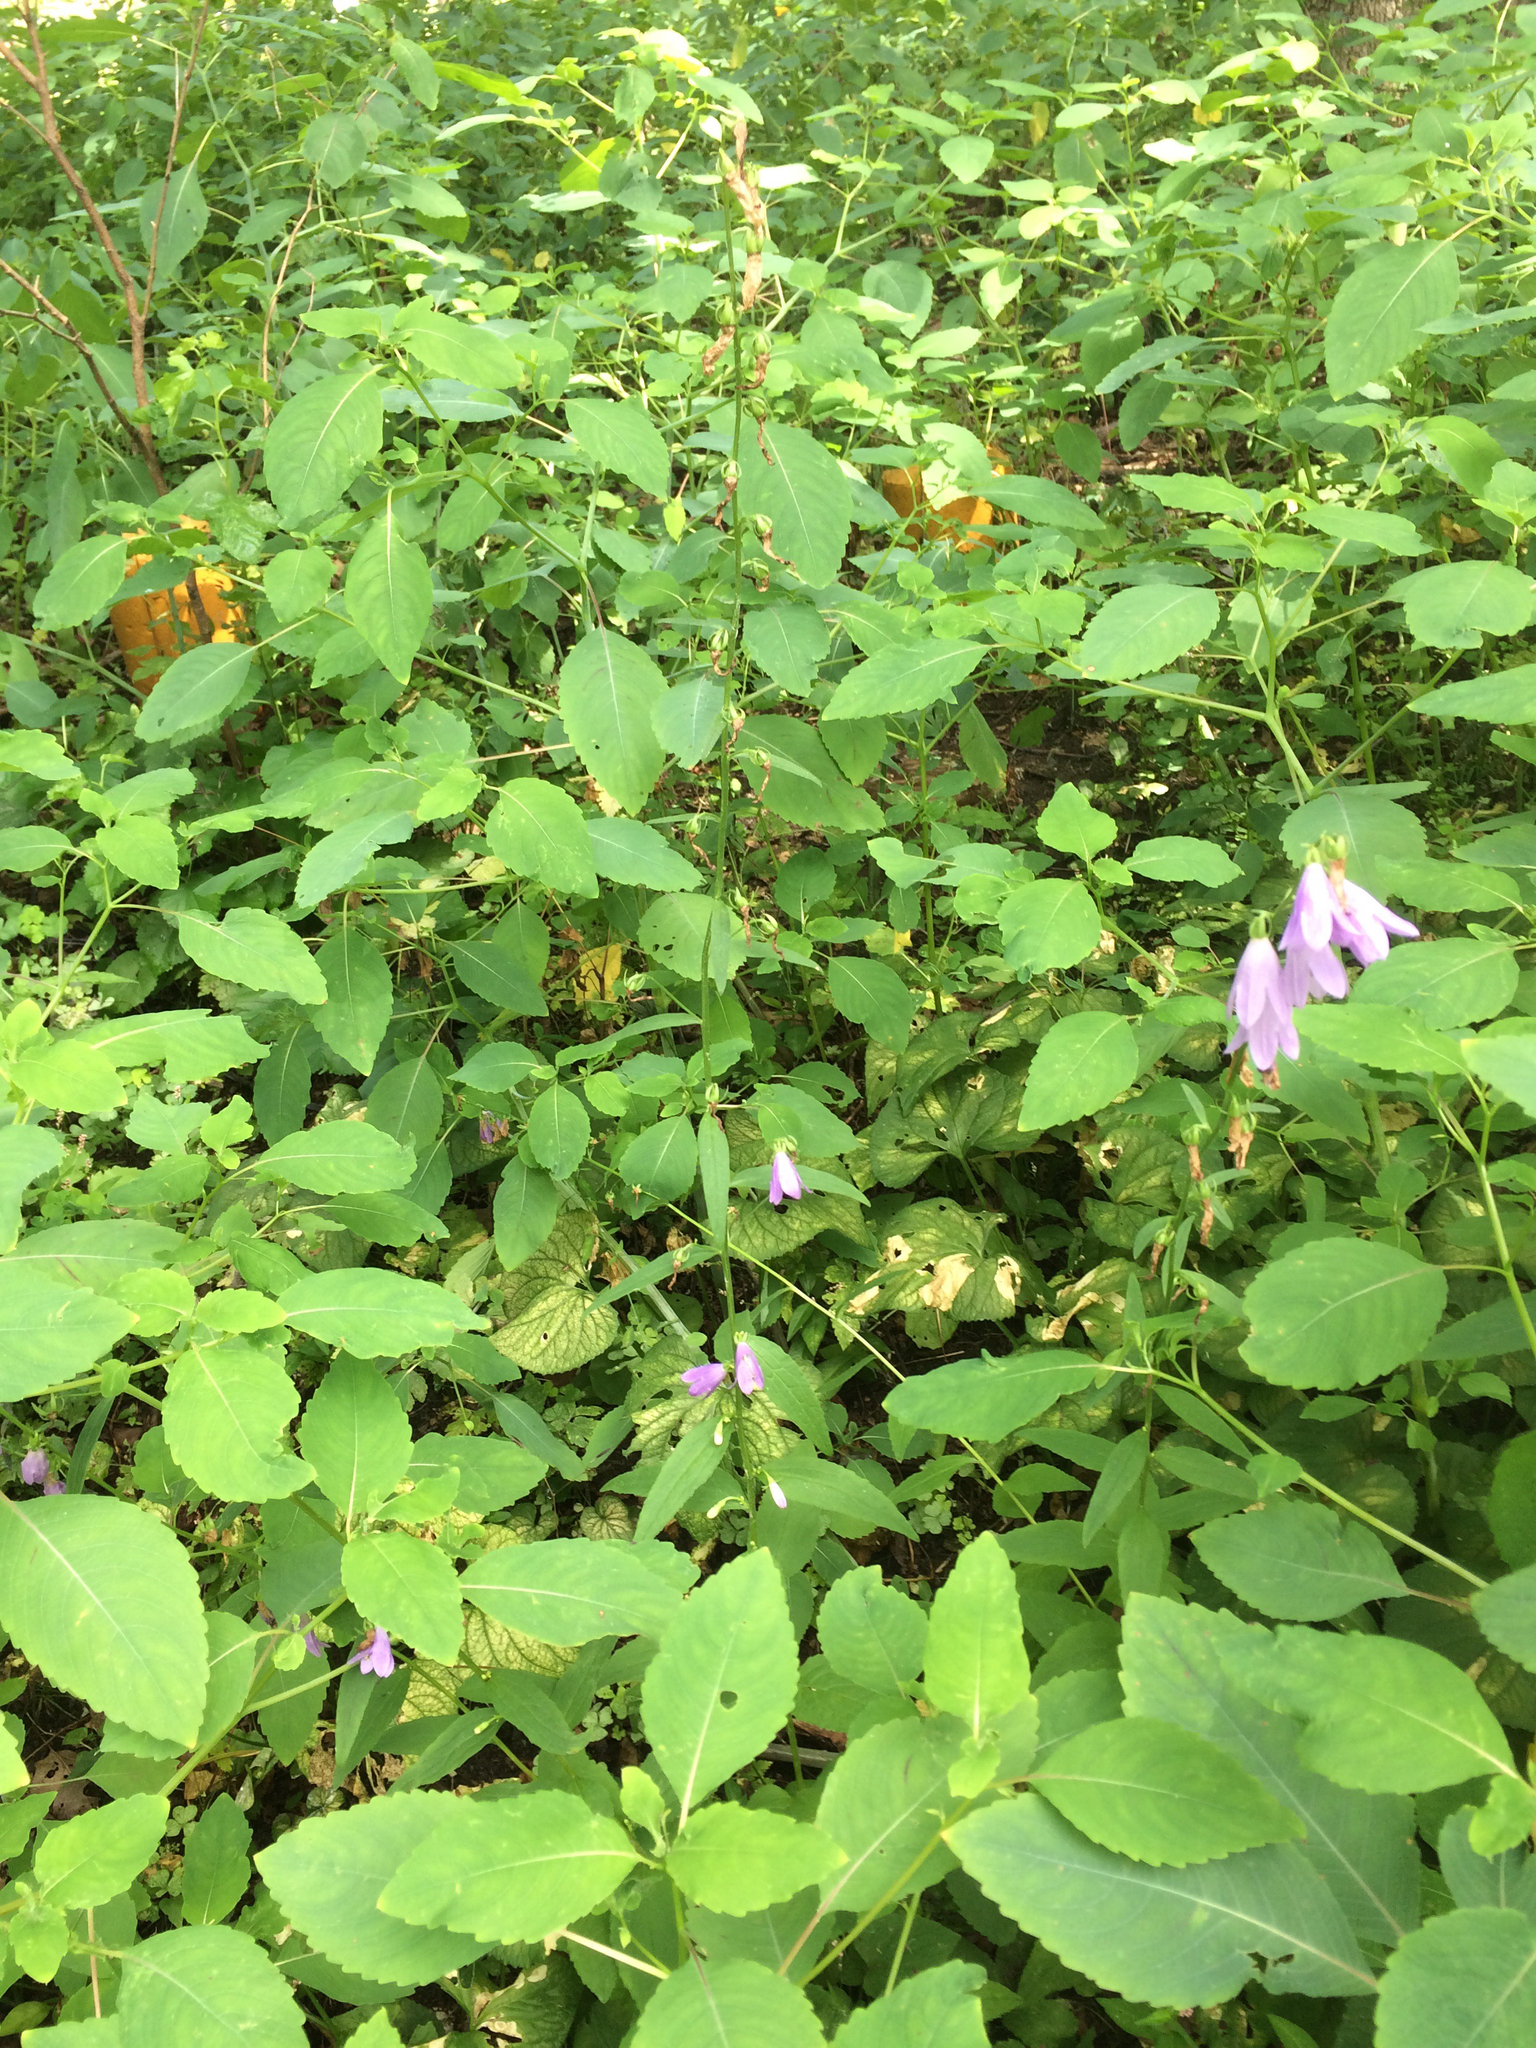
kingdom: Plantae
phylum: Tracheophyta
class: Magnoliopsida
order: Asterales
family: Campanulaceae
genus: Campanula
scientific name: Campanula rapunculoides
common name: Creeping bellflower
